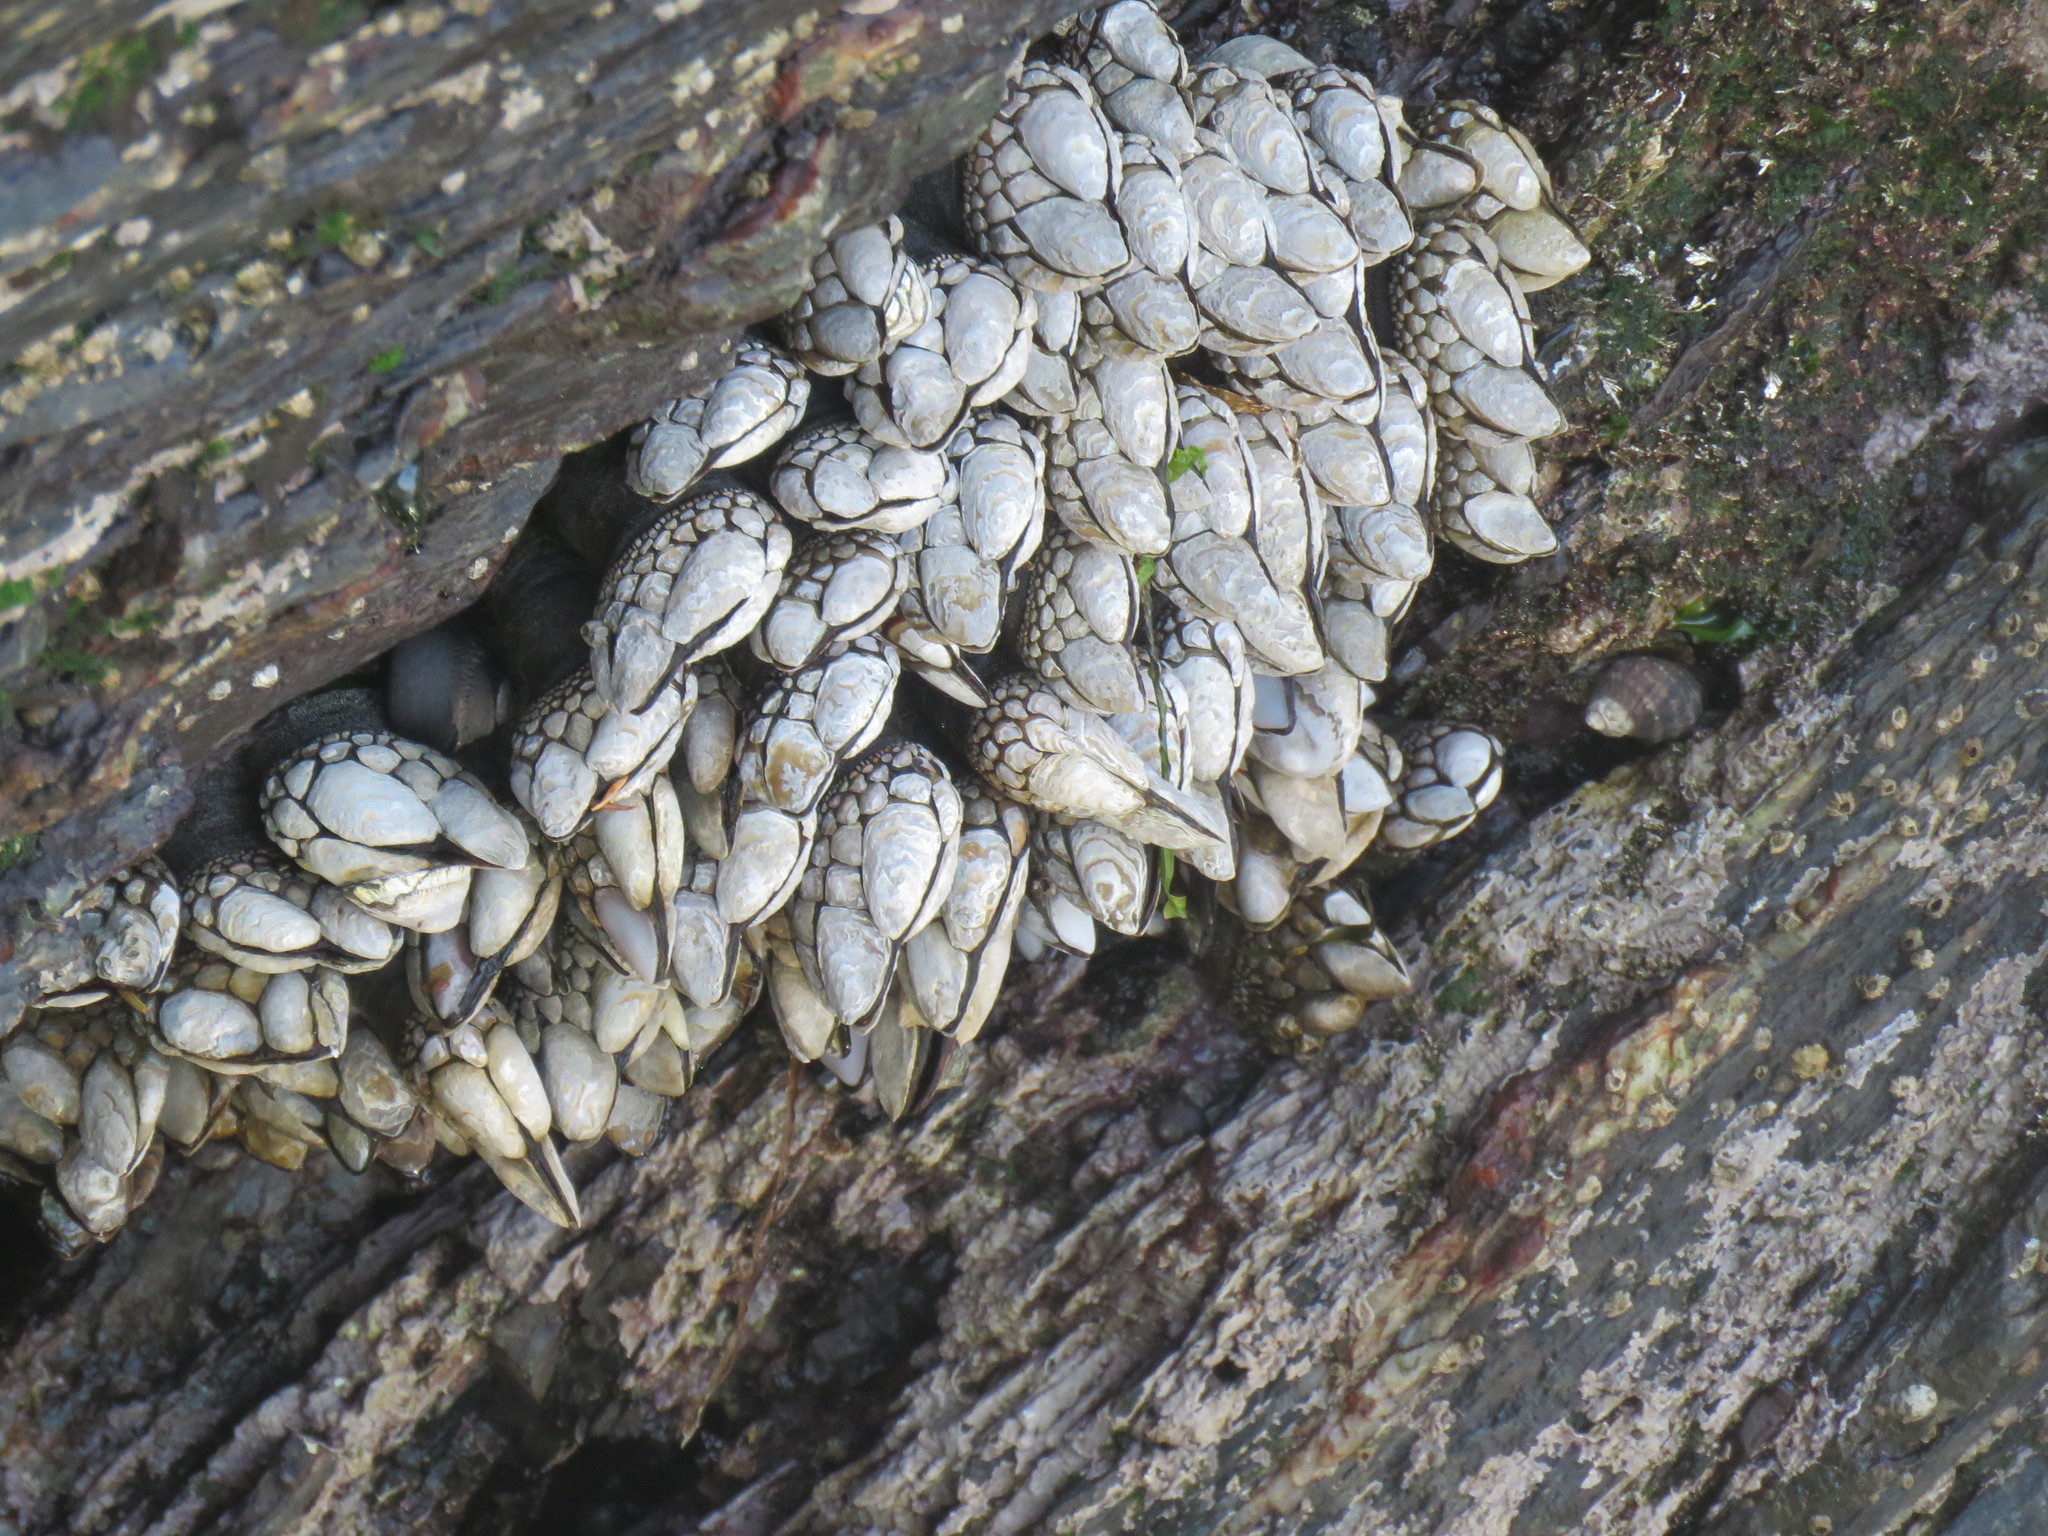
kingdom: Animalia
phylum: Arthropoda
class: Maxillopoda
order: Pedunculata
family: Pollicipedidae
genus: Pollicipes
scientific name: Pollicipes polymerus
